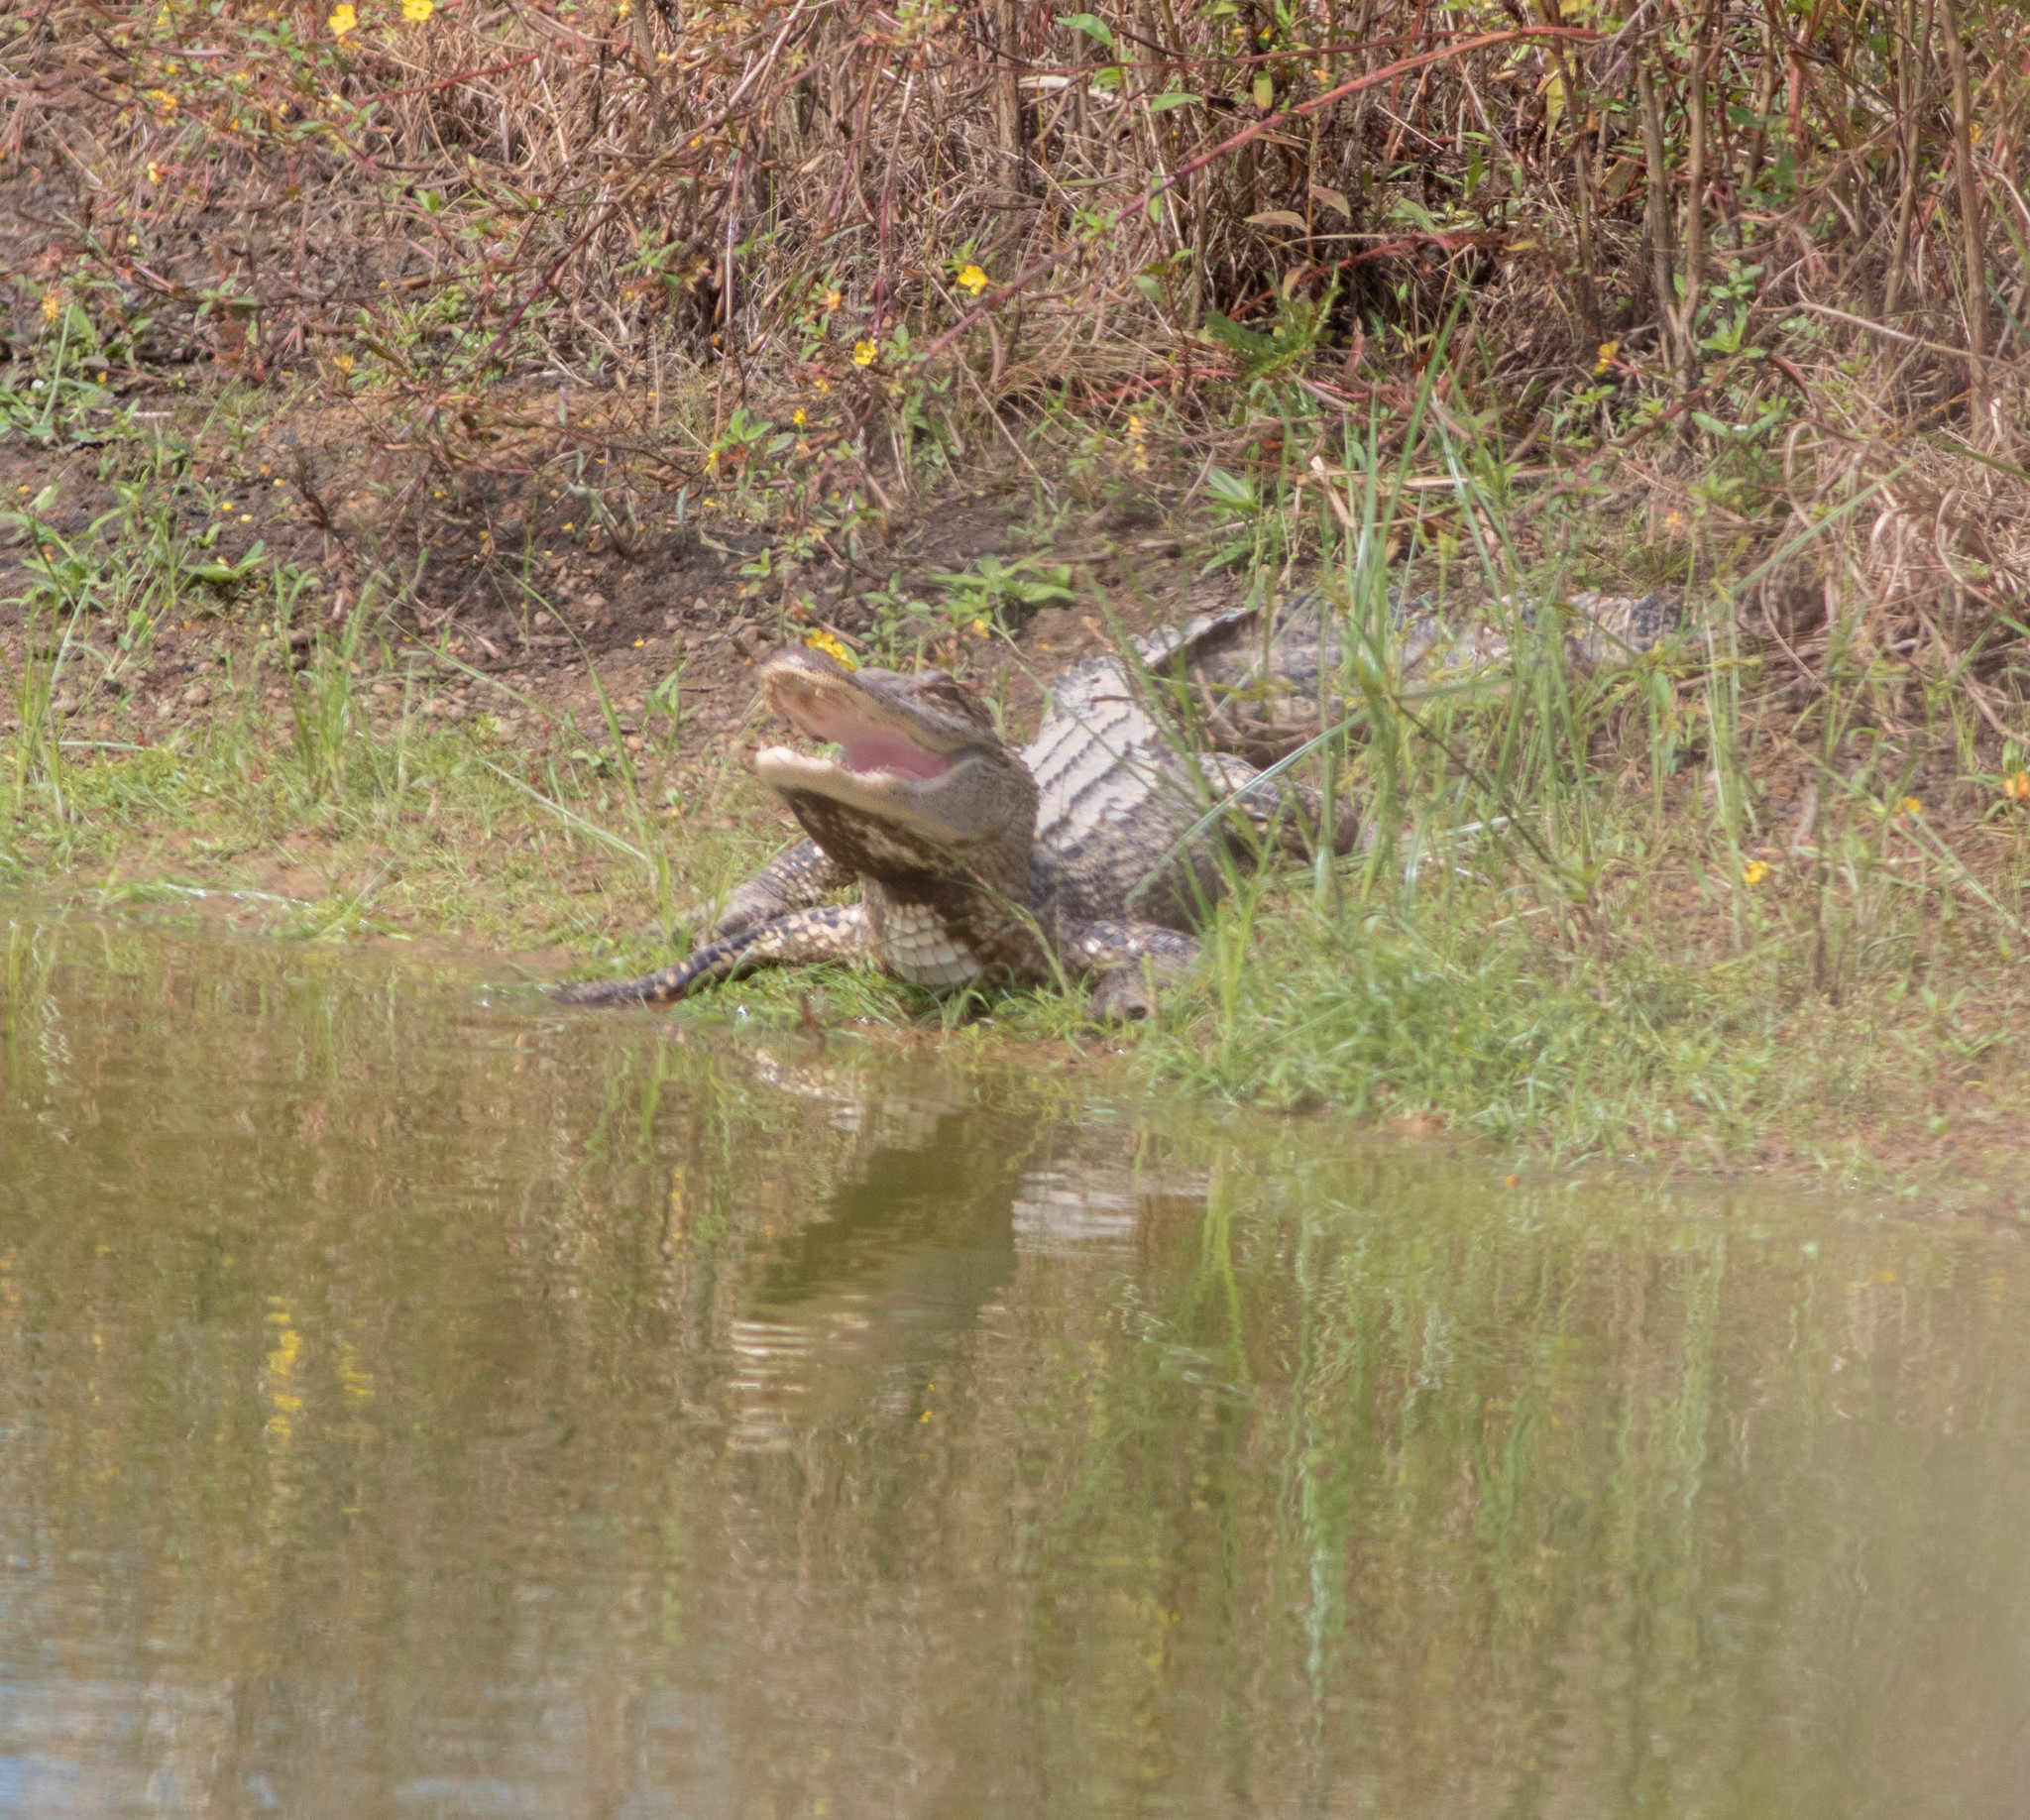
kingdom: Animalia
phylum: Chordata
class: Crocodylia
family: Alligatoridae
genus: Alligator
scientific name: Alligator mississippiensis
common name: American alligator
